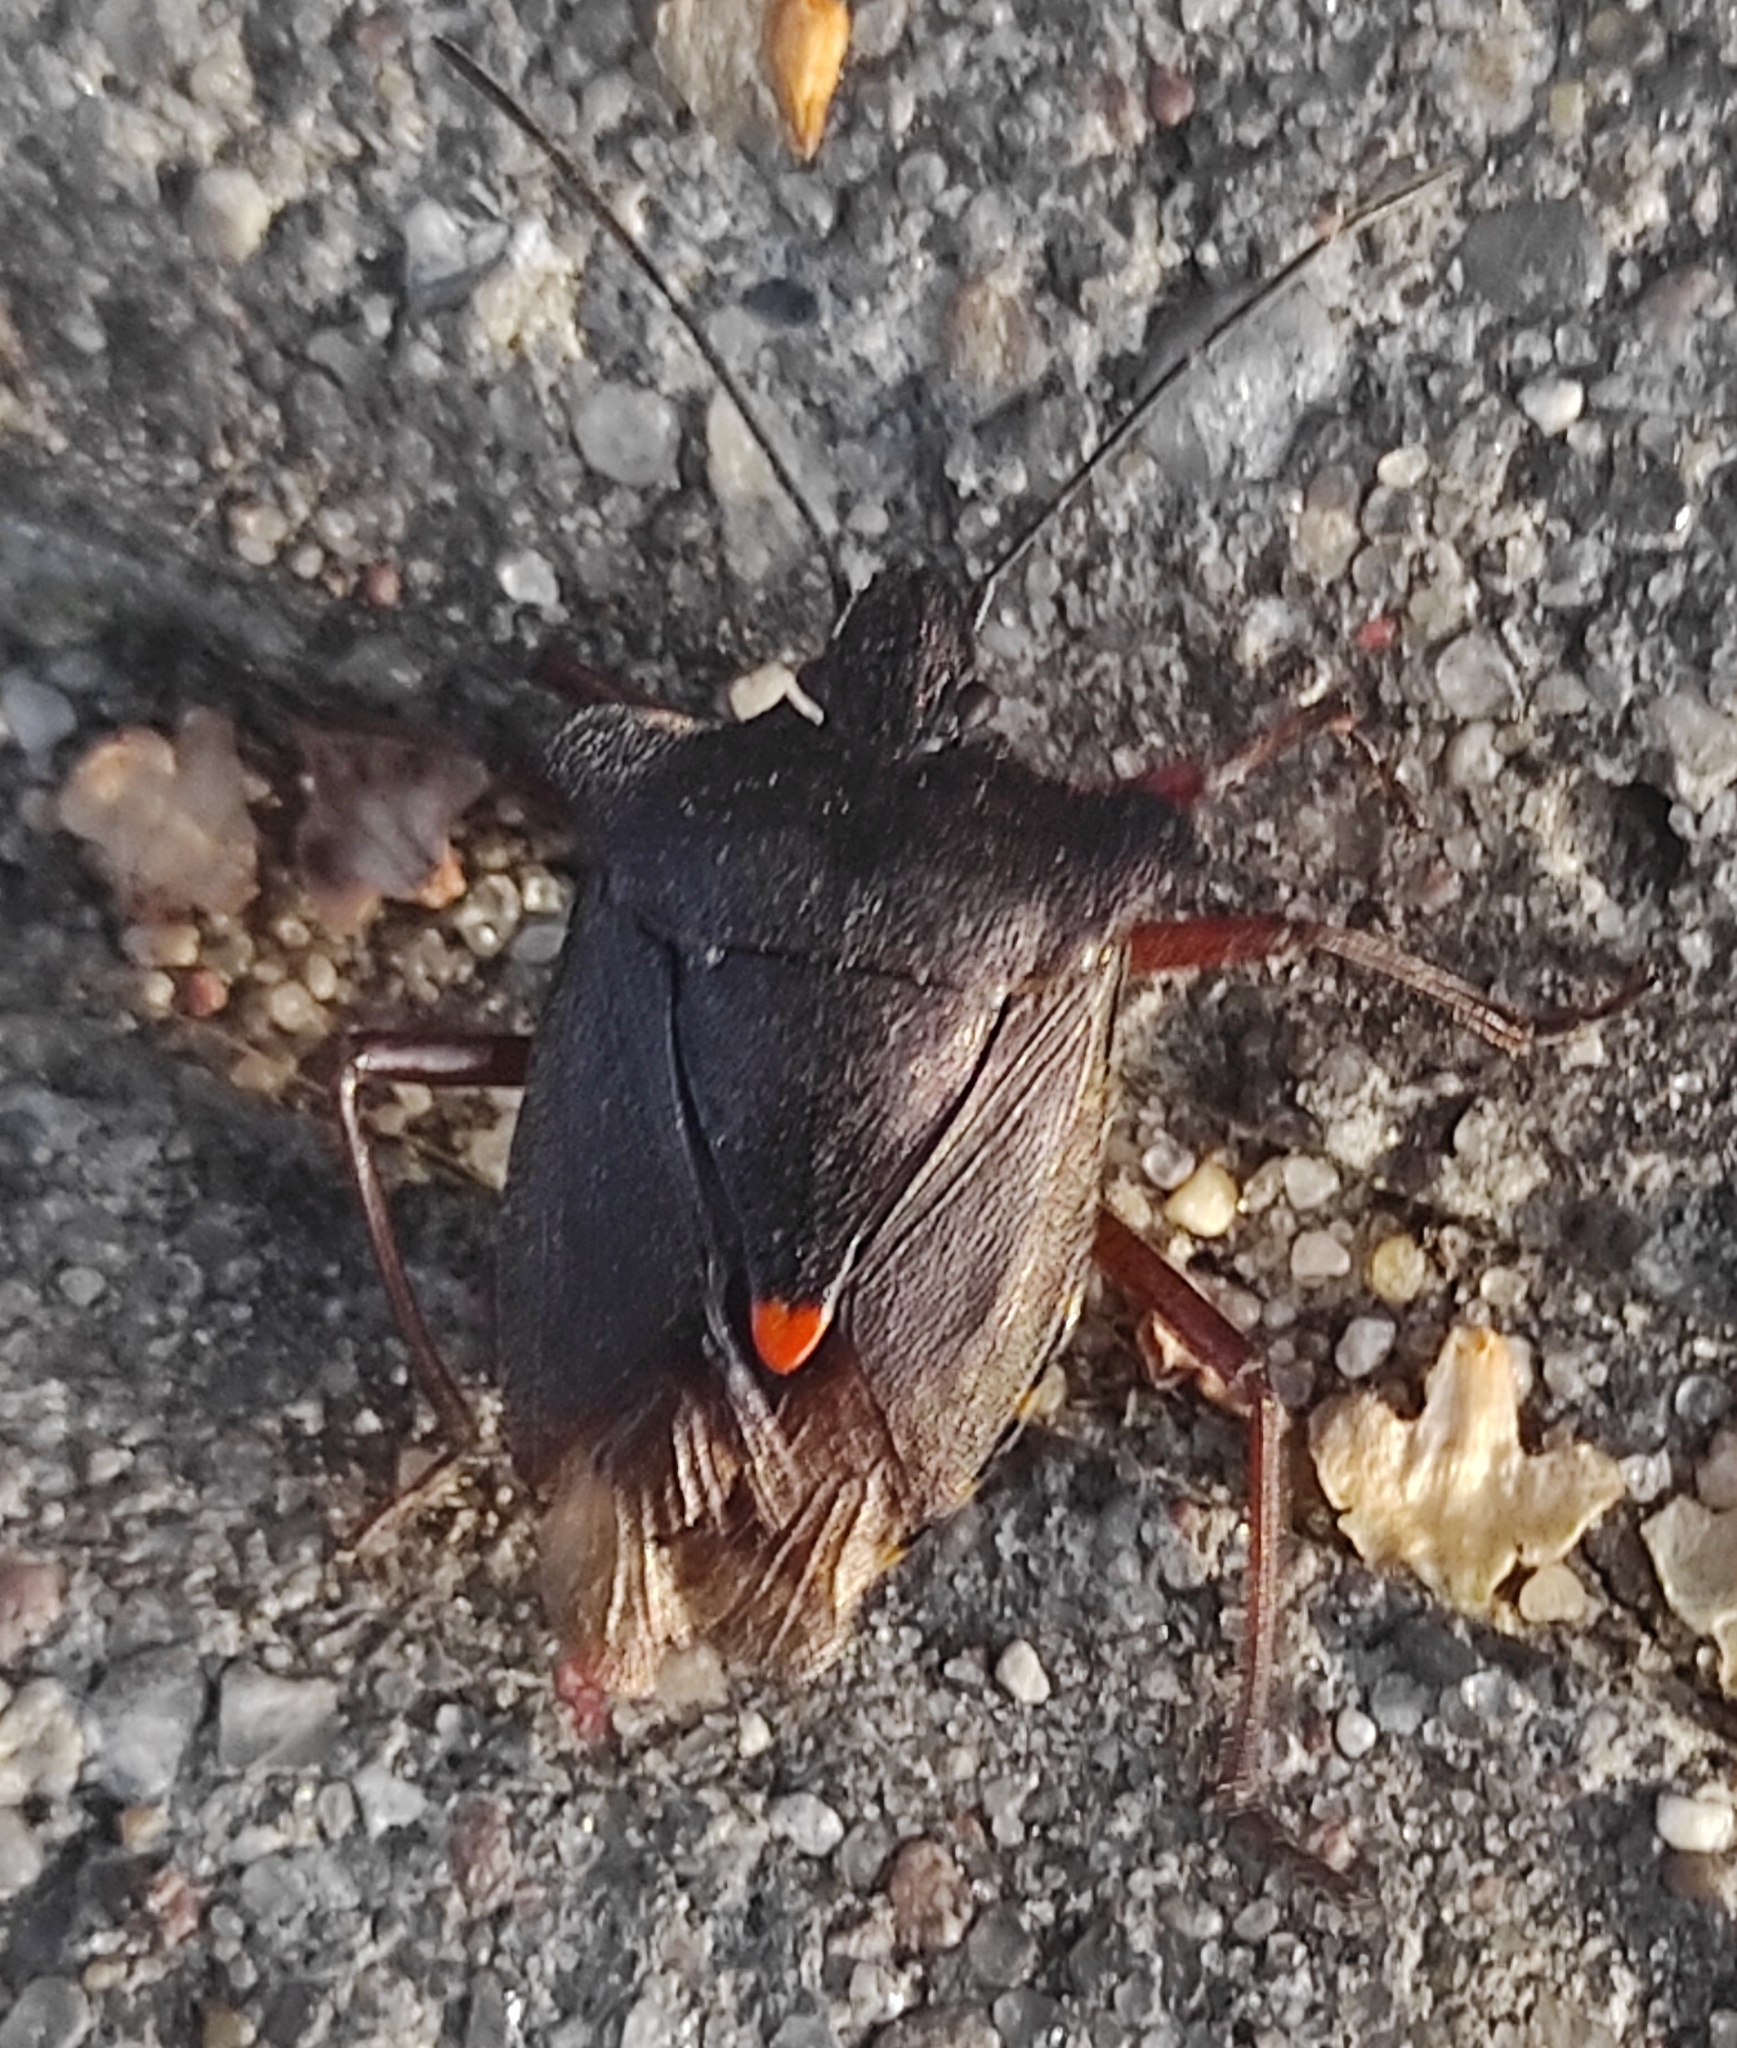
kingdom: Animalia
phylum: Arthropoda
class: Insecta
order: Hemiptera
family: Pentatomidae
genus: Pentatoma
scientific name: Pentatoma rufipes
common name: Forest bug
